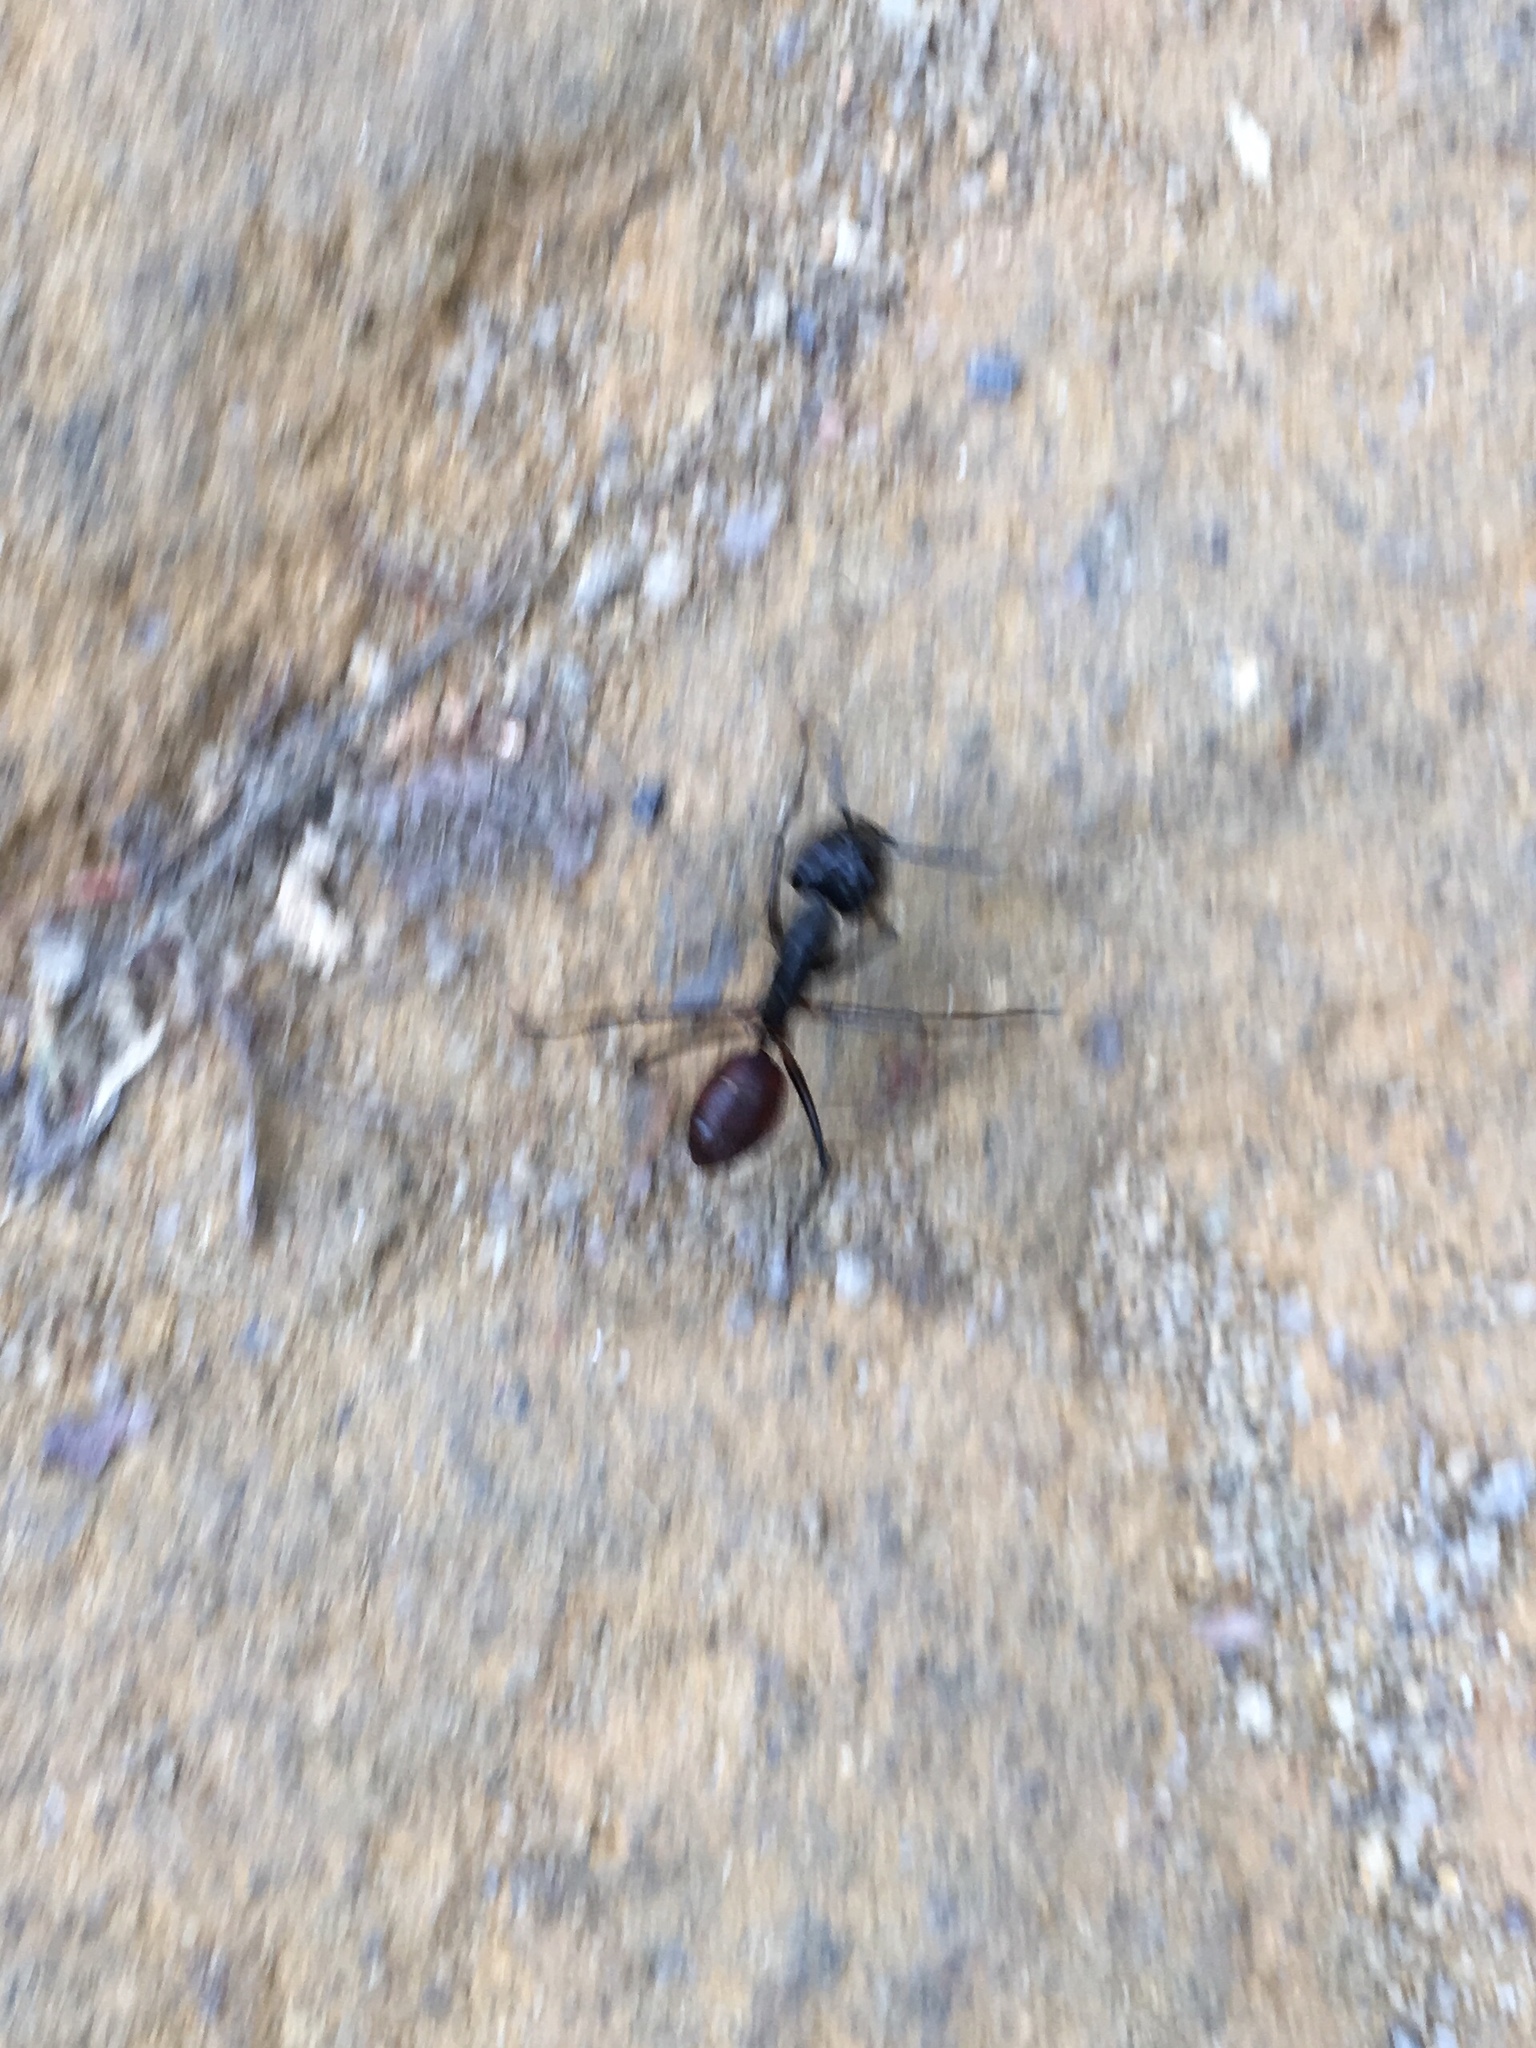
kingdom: Animalia
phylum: Arthropoda
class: Insecta
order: Hymenoptera
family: Formicidae
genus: Dinomyrmex
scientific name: Dinomyrmex
